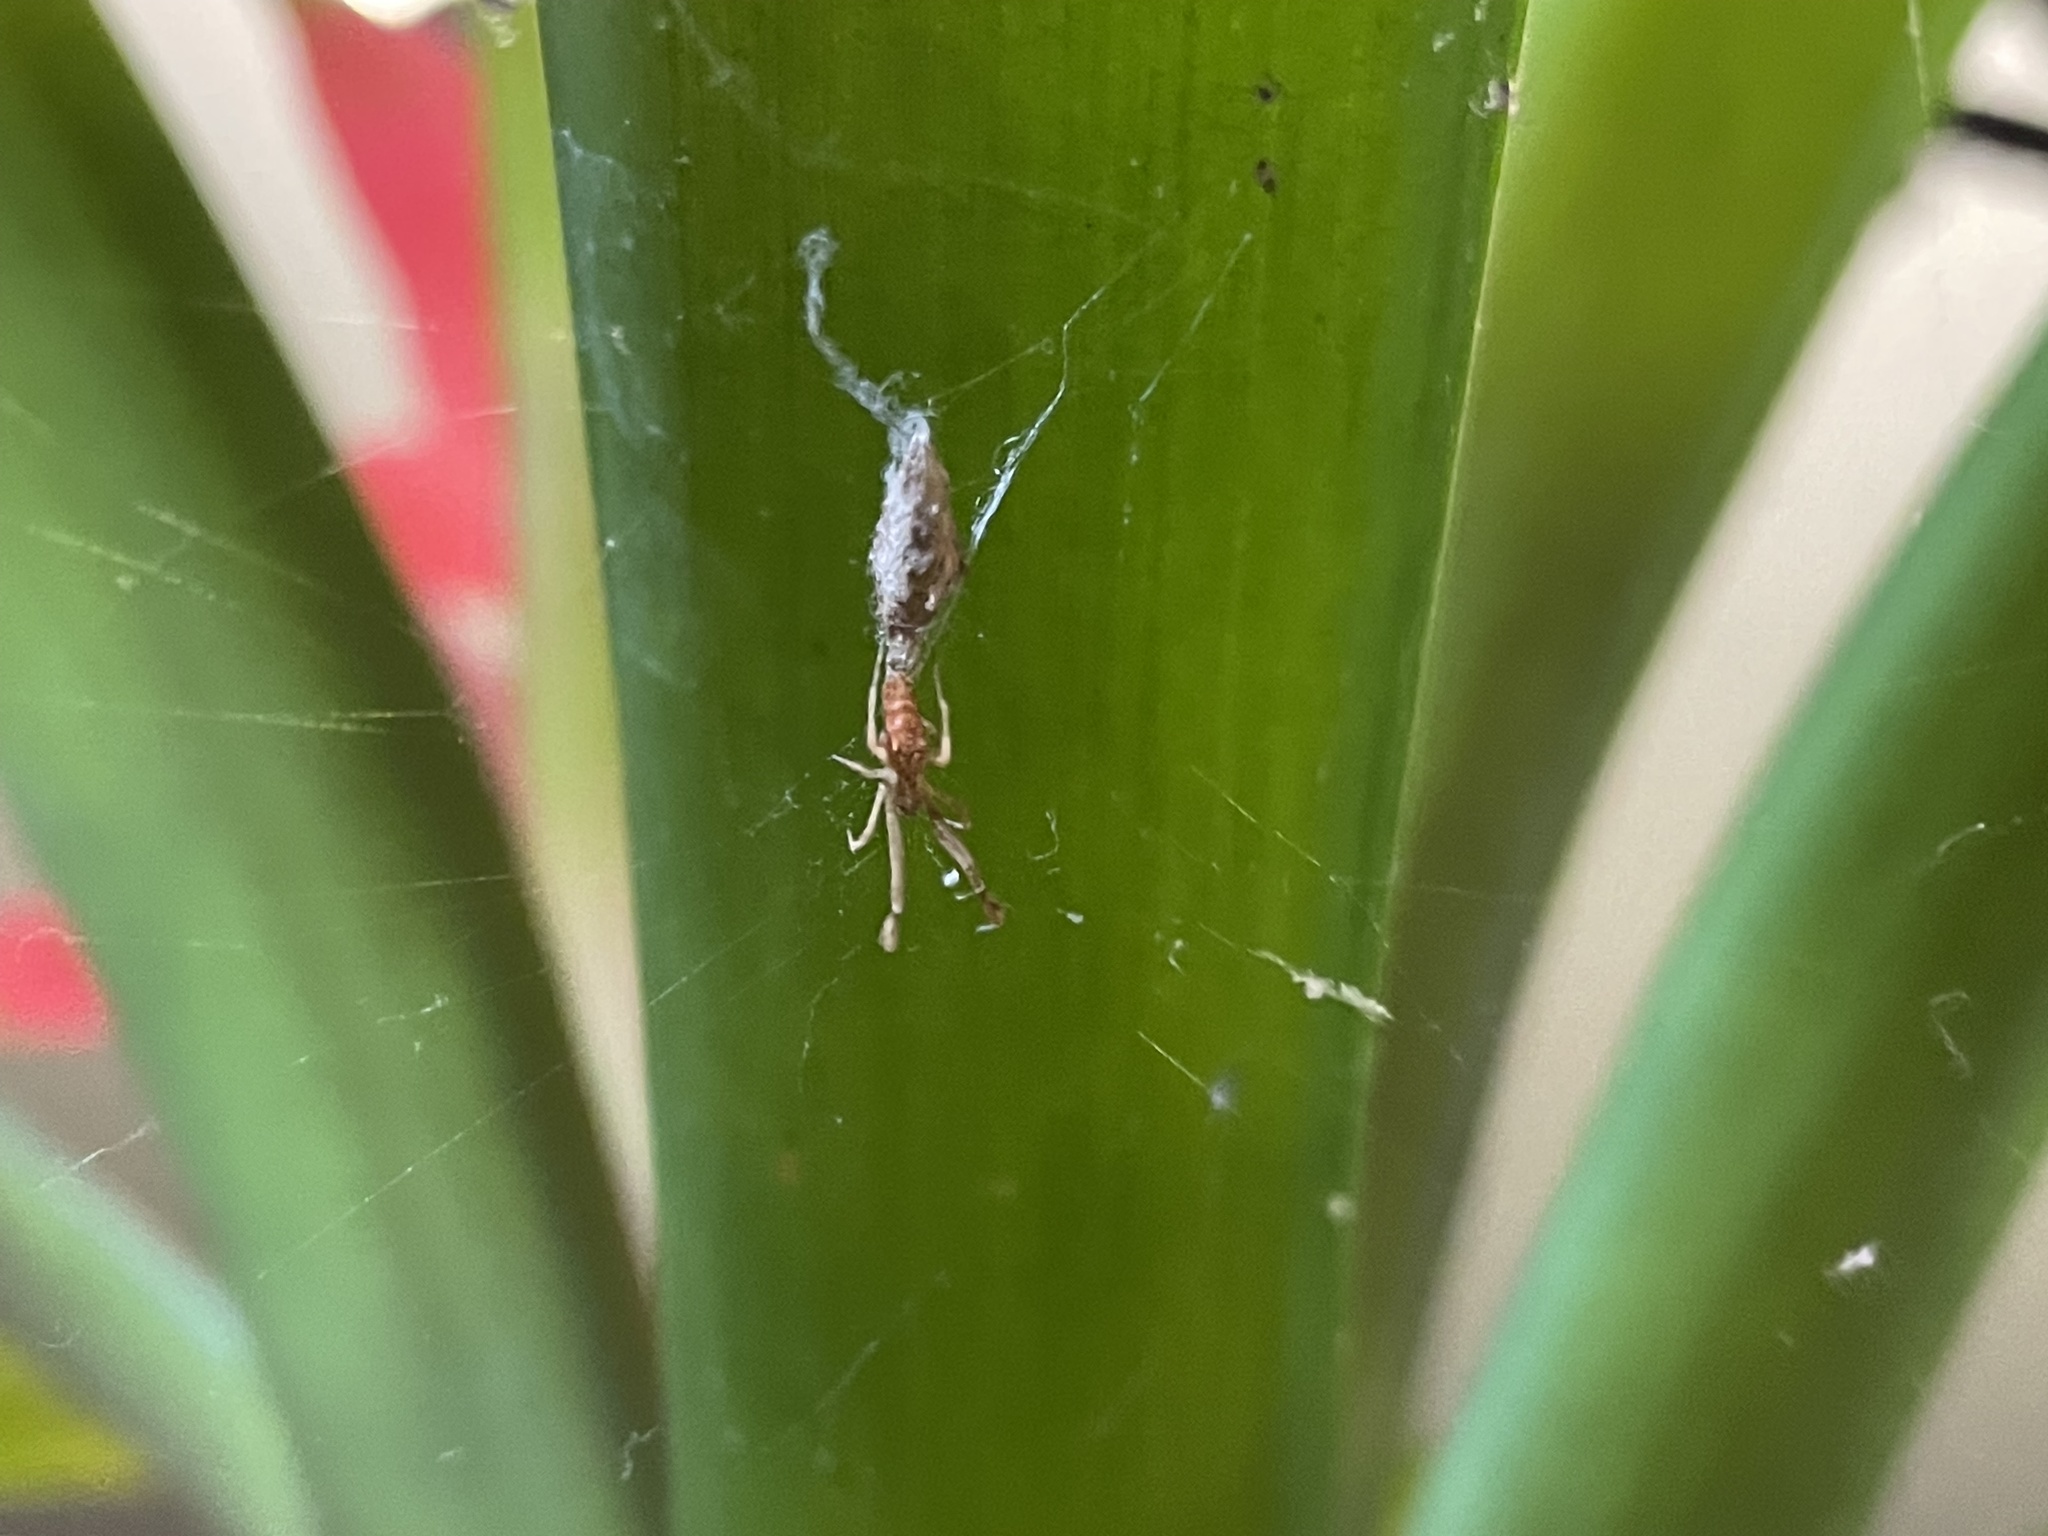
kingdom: Animalia
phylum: Arthropoda
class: Arachnida
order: Araneae
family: Uloboridae
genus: Uloborus
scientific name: Uloborus glomosus
